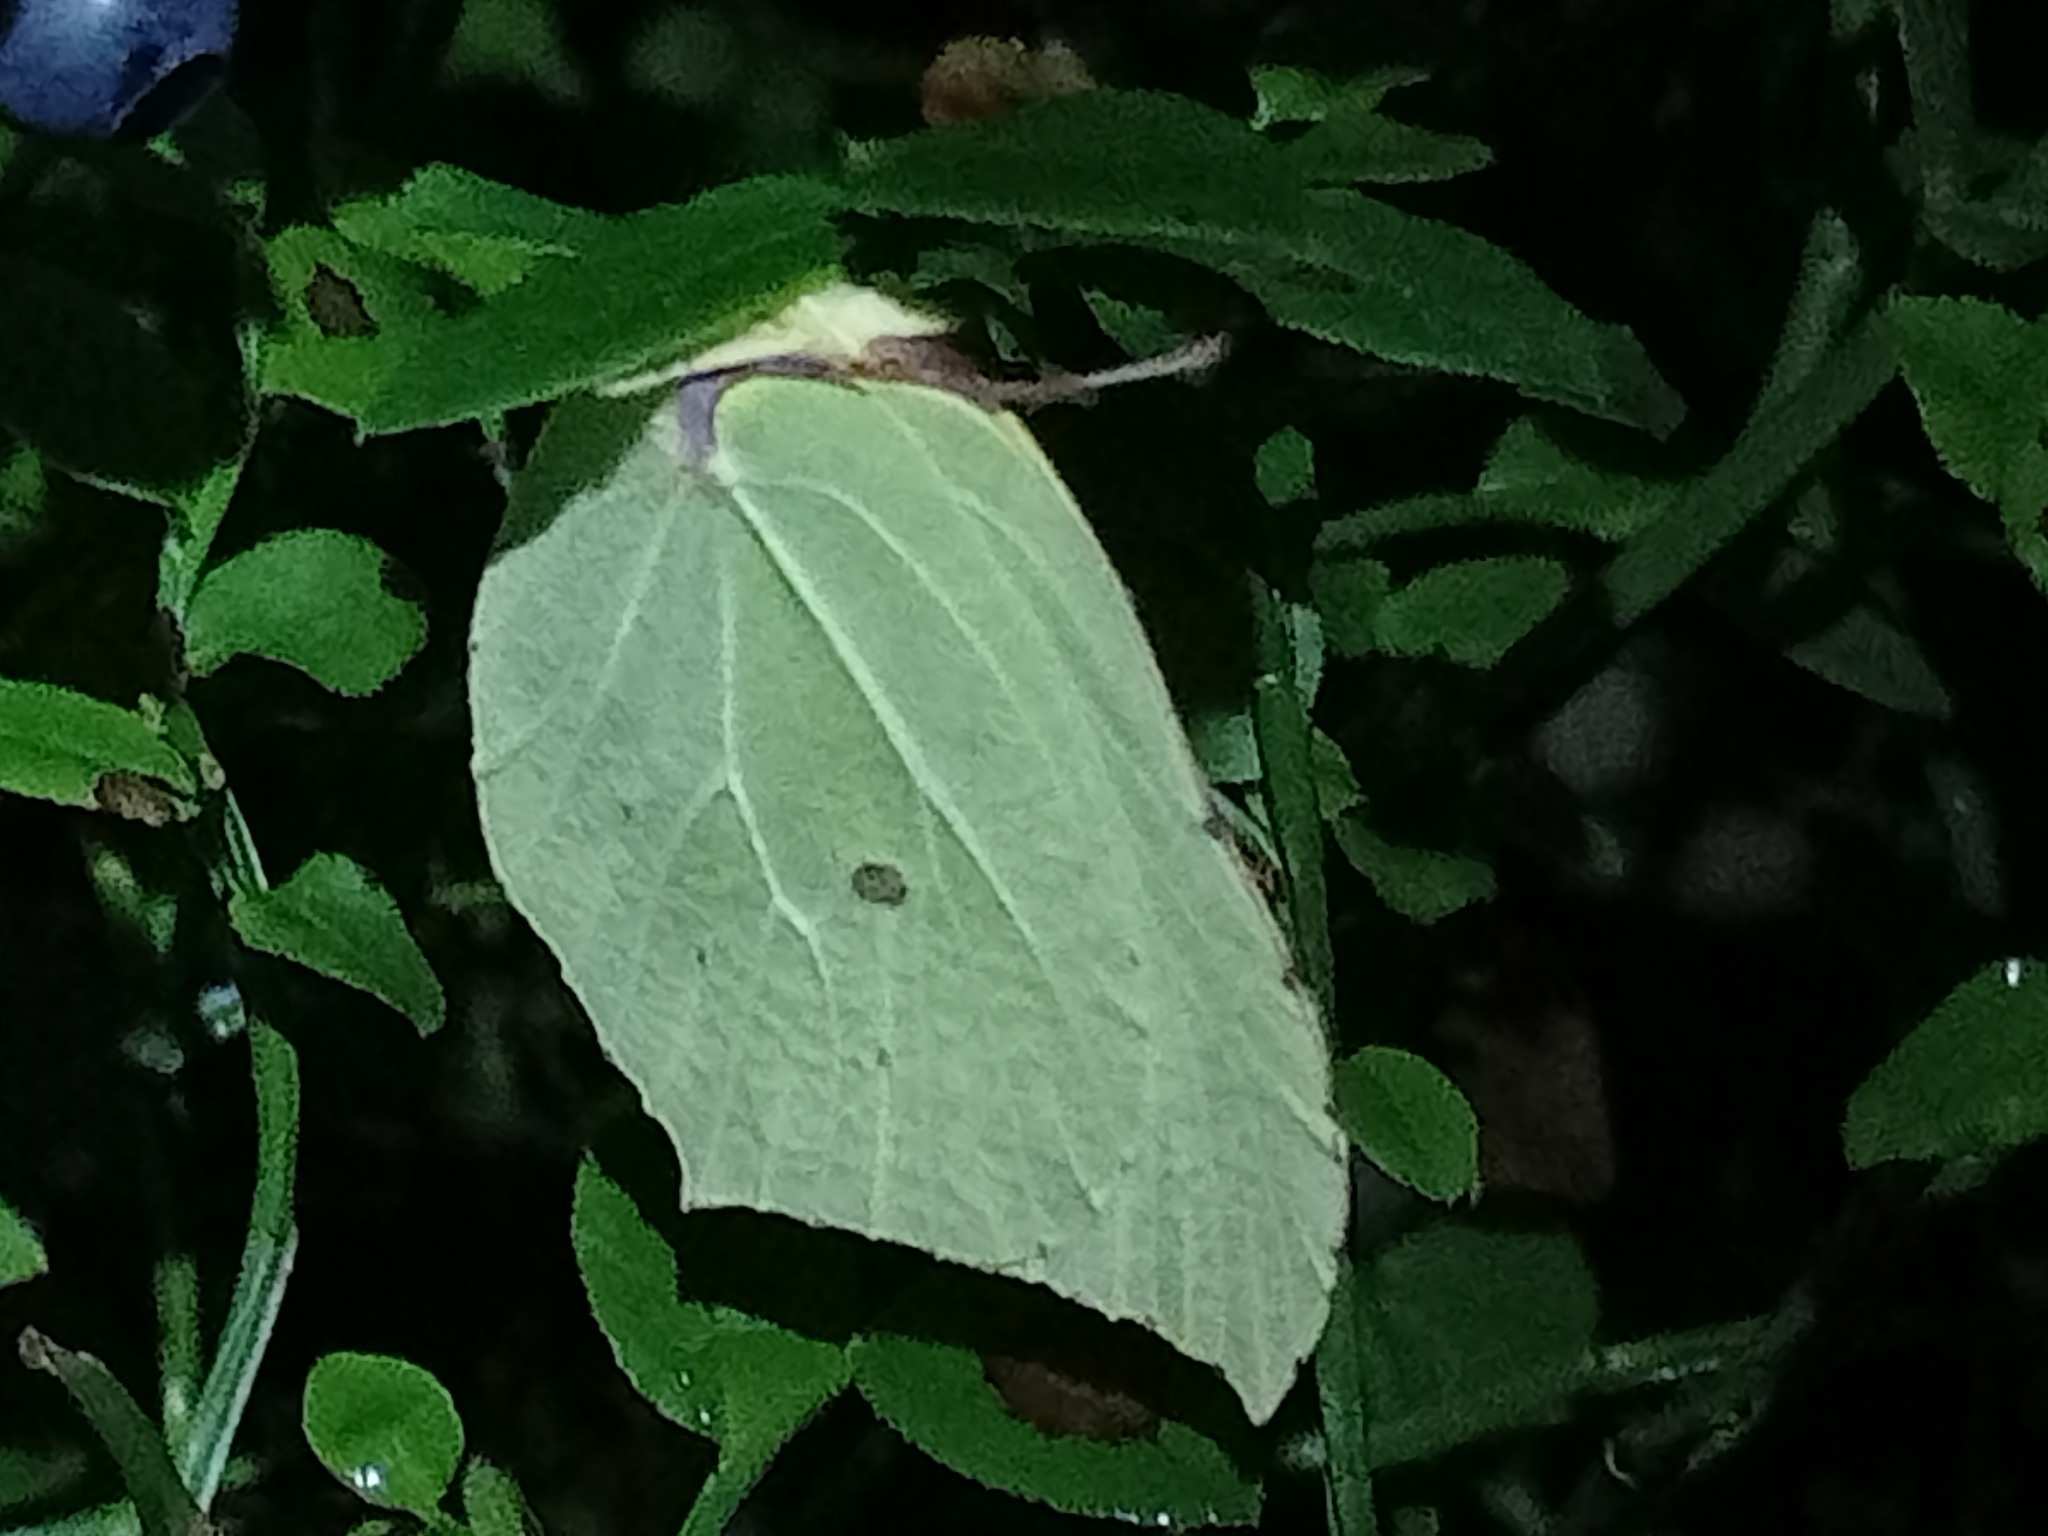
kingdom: Animalia
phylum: Arthropoda
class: Insecta
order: Lepidoptera
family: Pieridae
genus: Gonepteryx
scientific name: Gonepteryx rhamni
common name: Brimstone
